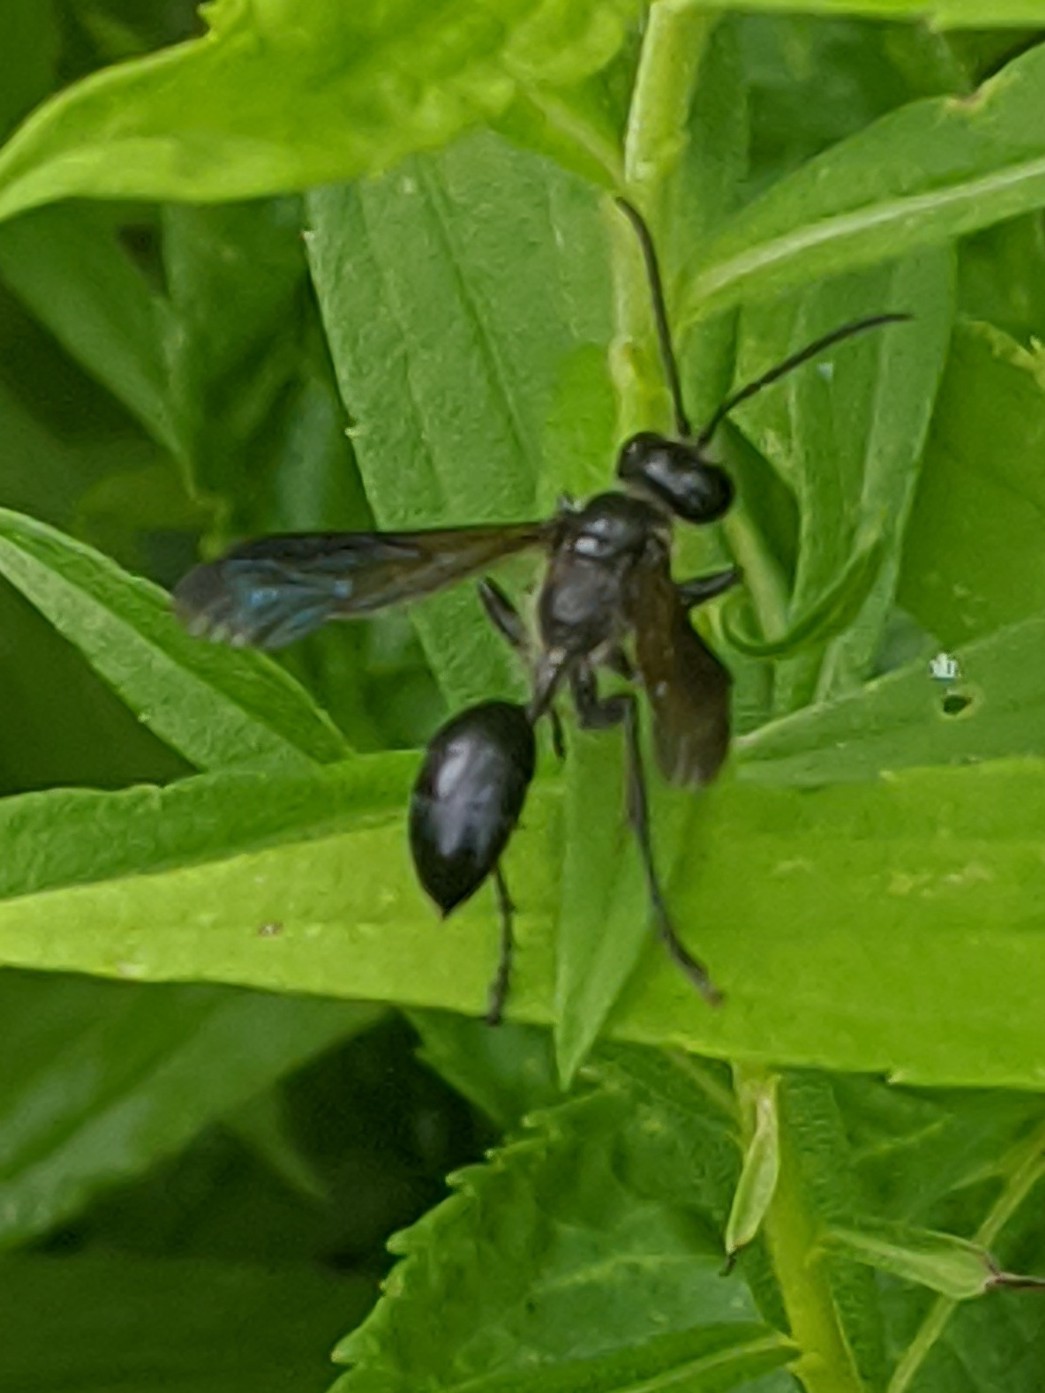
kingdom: Animalia
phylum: Arthropoda
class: Insecta
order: Hymenoptera
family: Sphecidae
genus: Isodontia
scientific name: Isodontia
